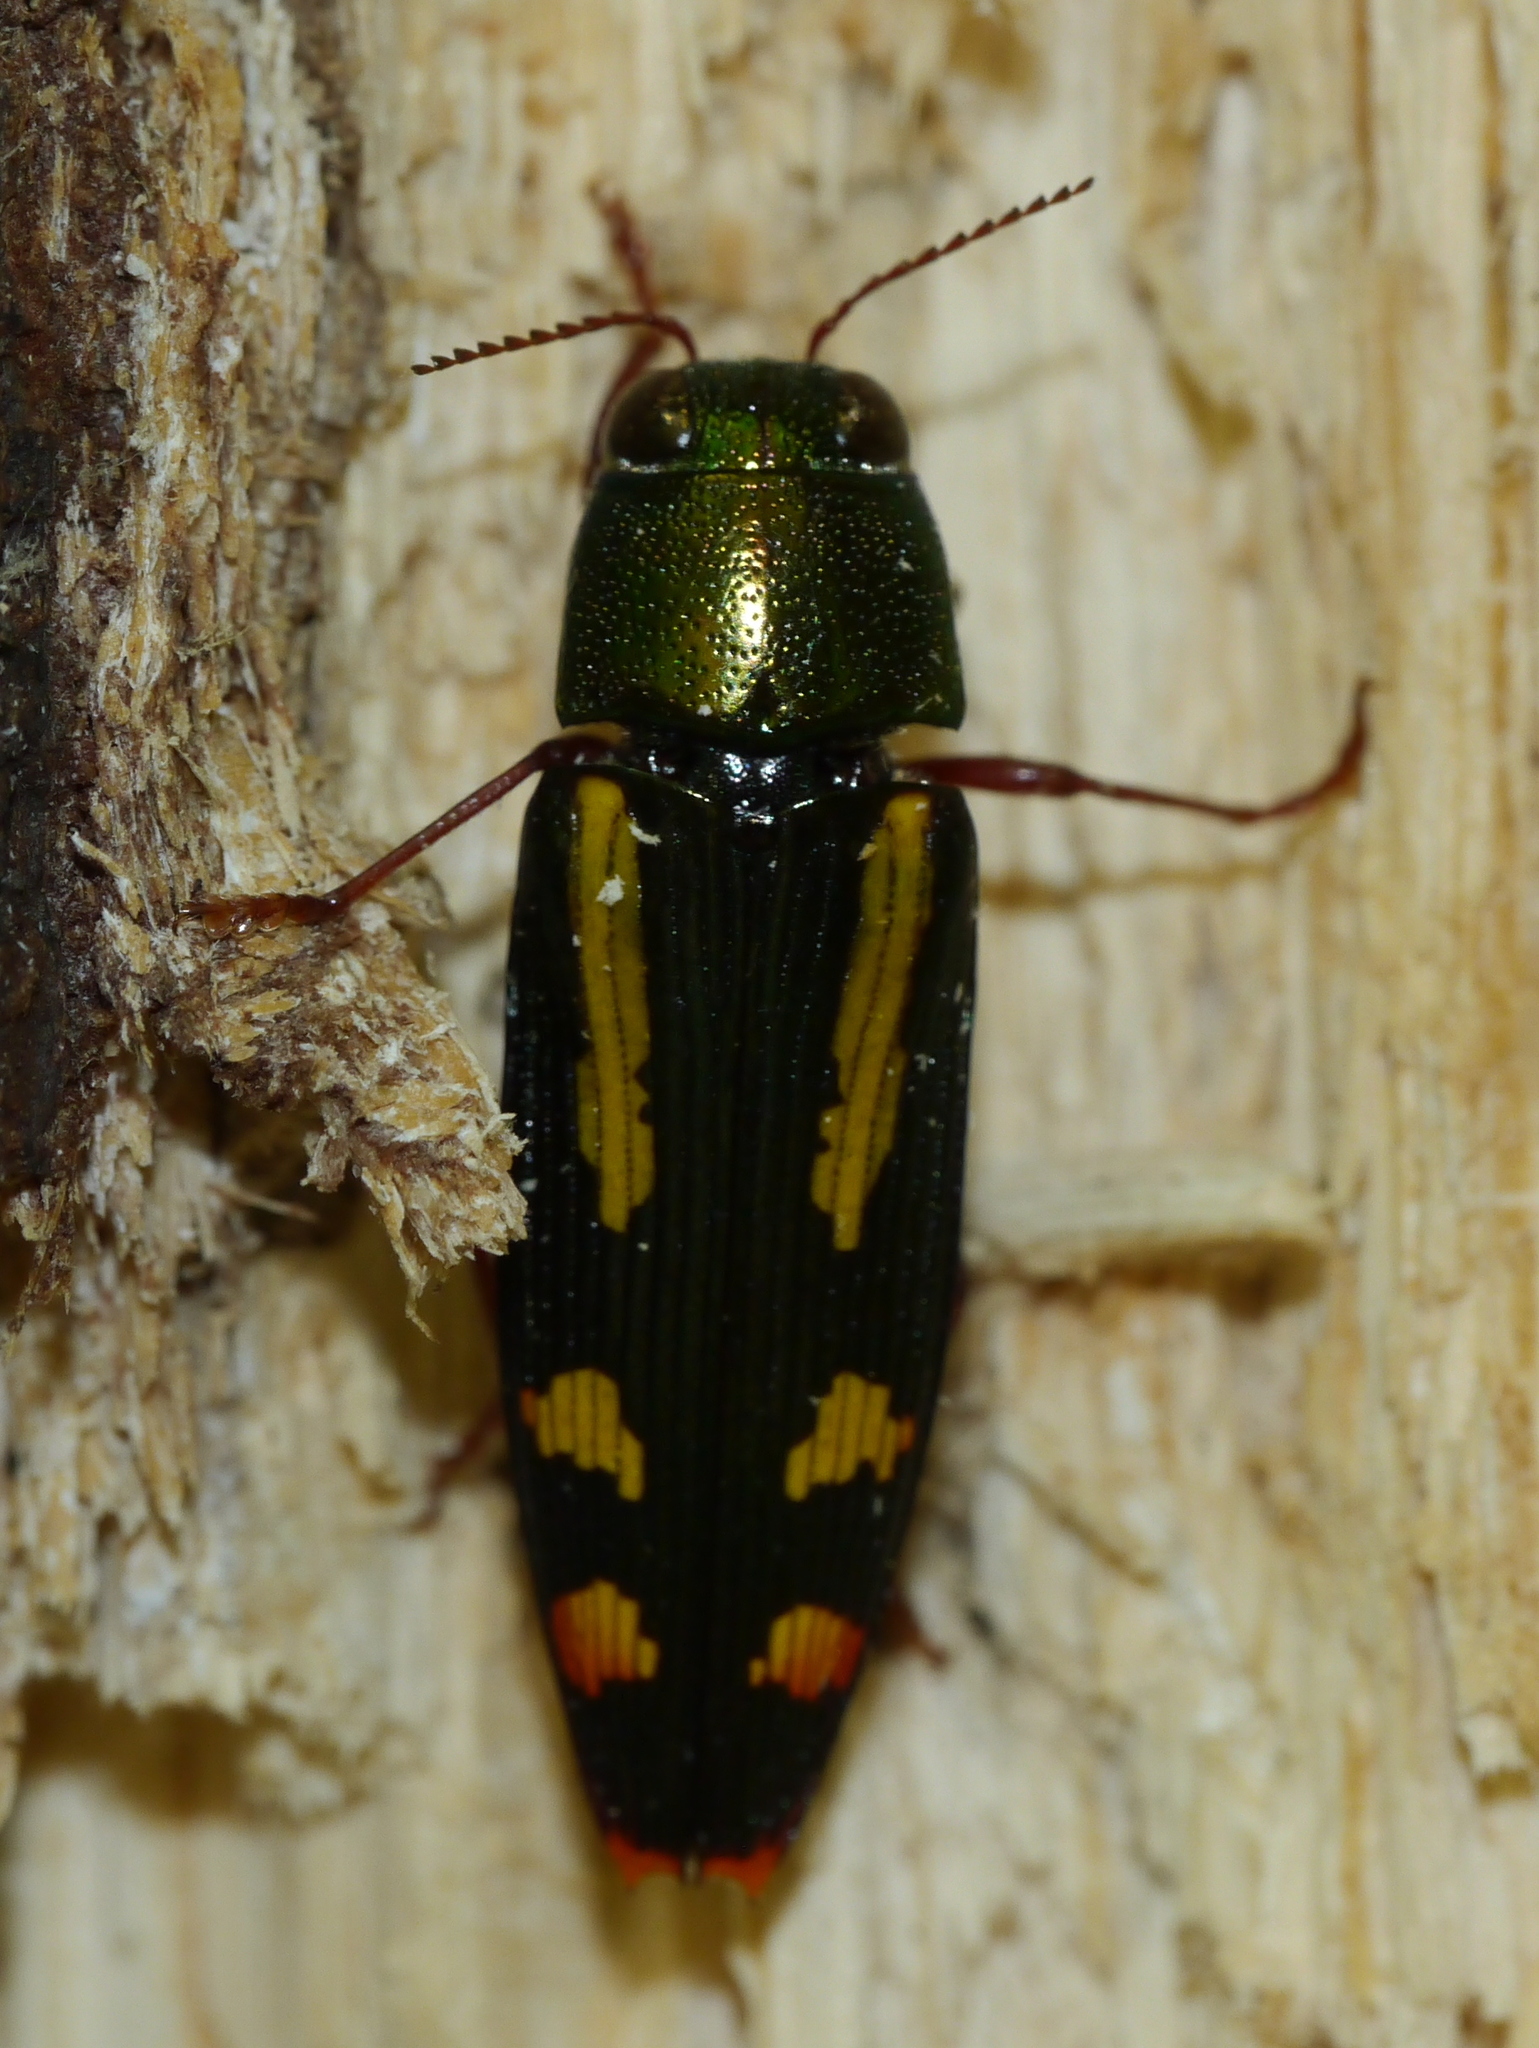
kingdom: Animalia
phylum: Arthropoda
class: Insecta
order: Coleoptera
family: Buprestidae
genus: Buprestis
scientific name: Buprestis rufipes
